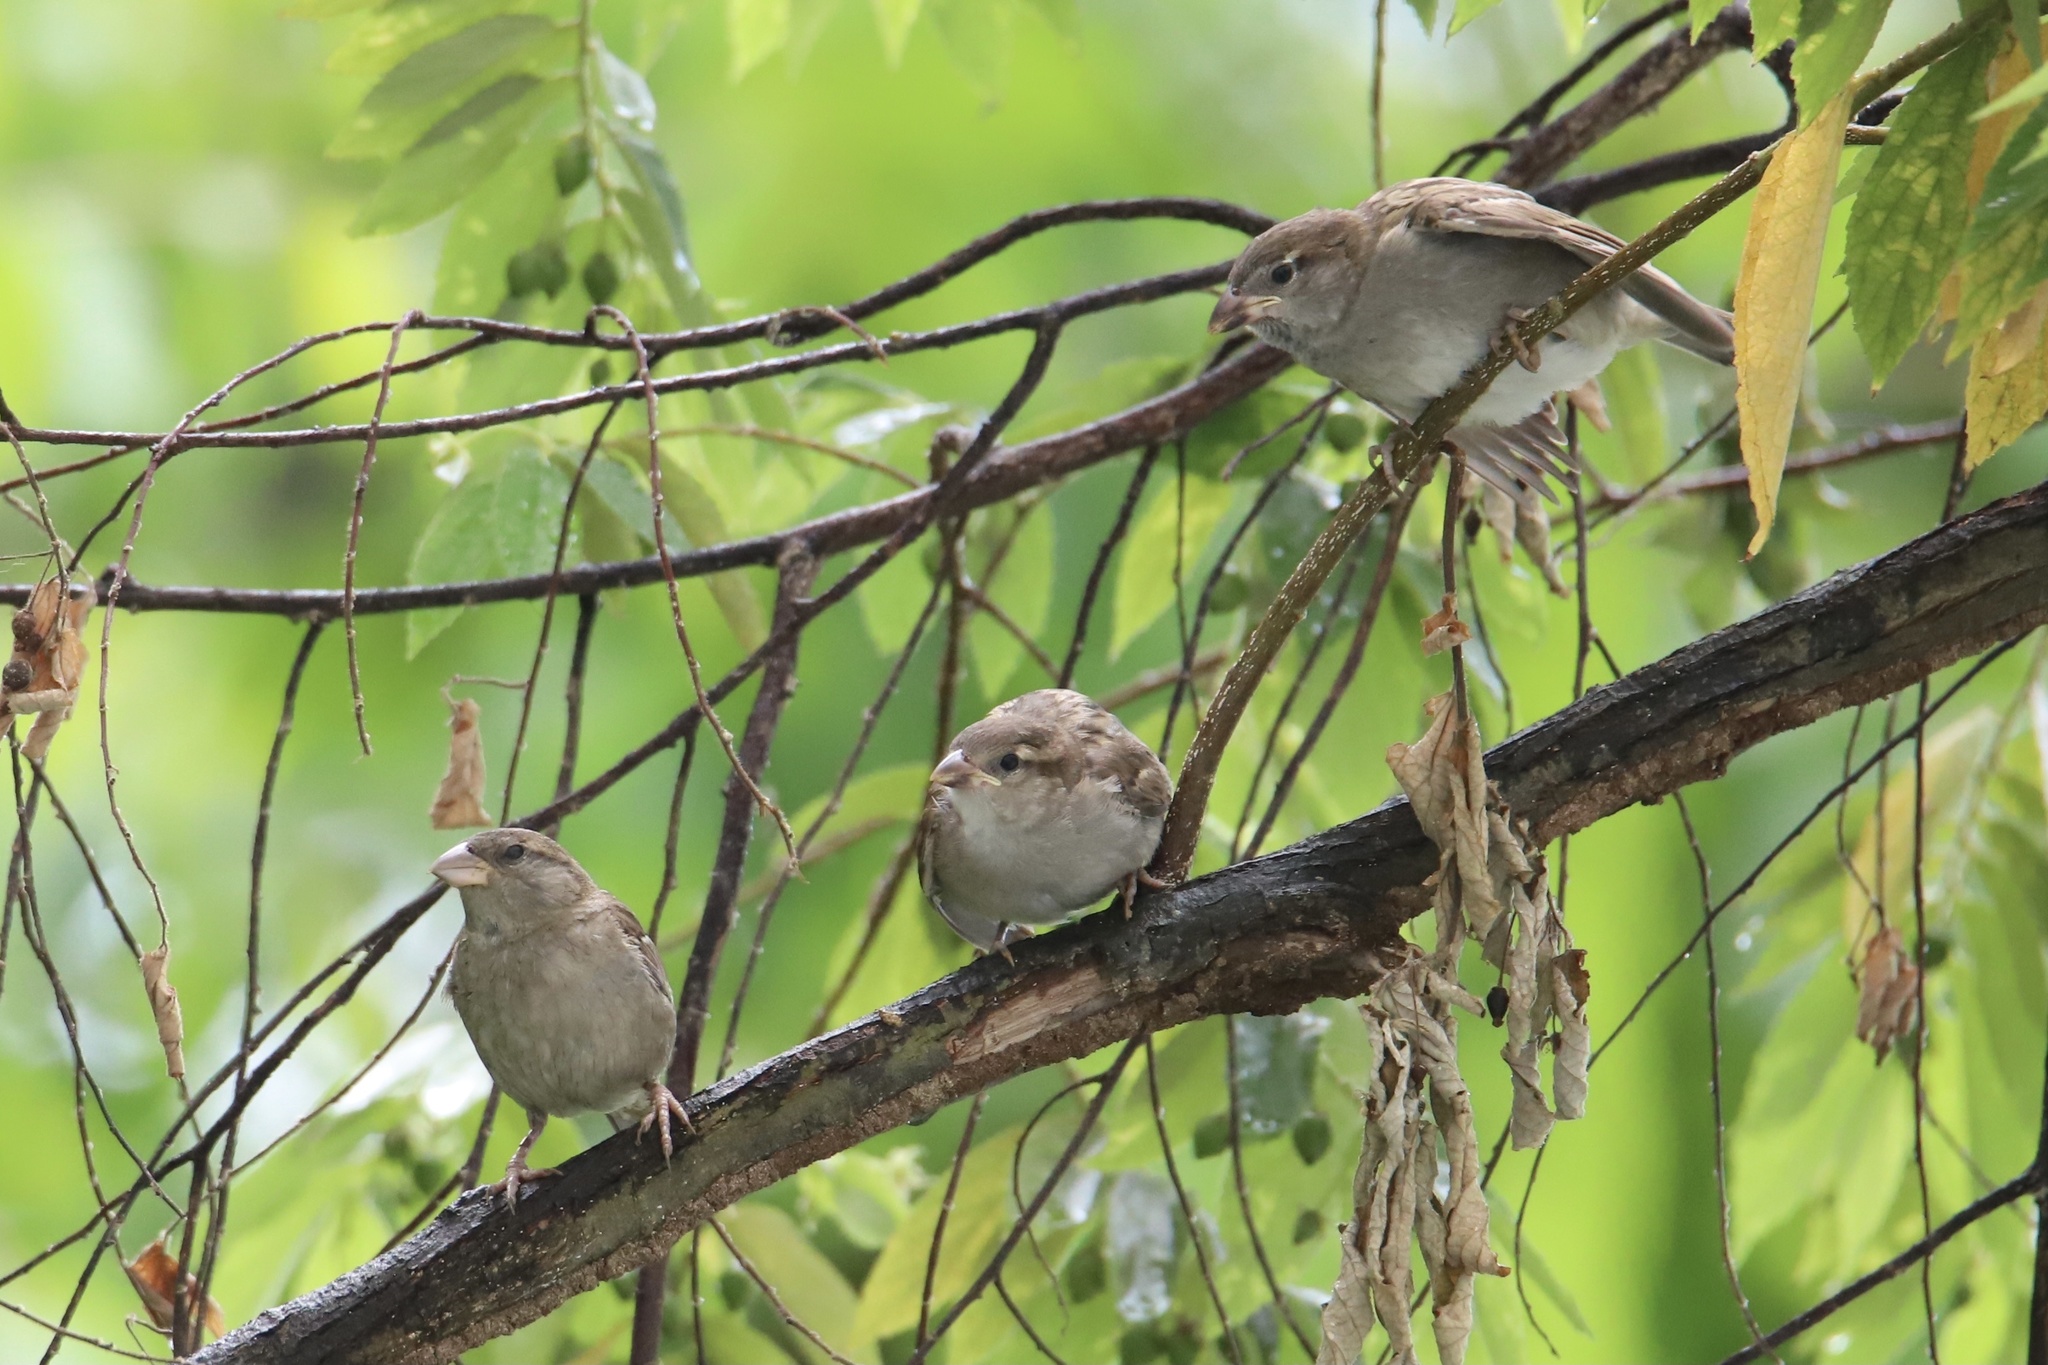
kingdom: Animalia
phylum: Chordata
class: Aves
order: Passeriformes
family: Passeridae
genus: Passer
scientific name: Passer domesticus
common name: House sparrow
